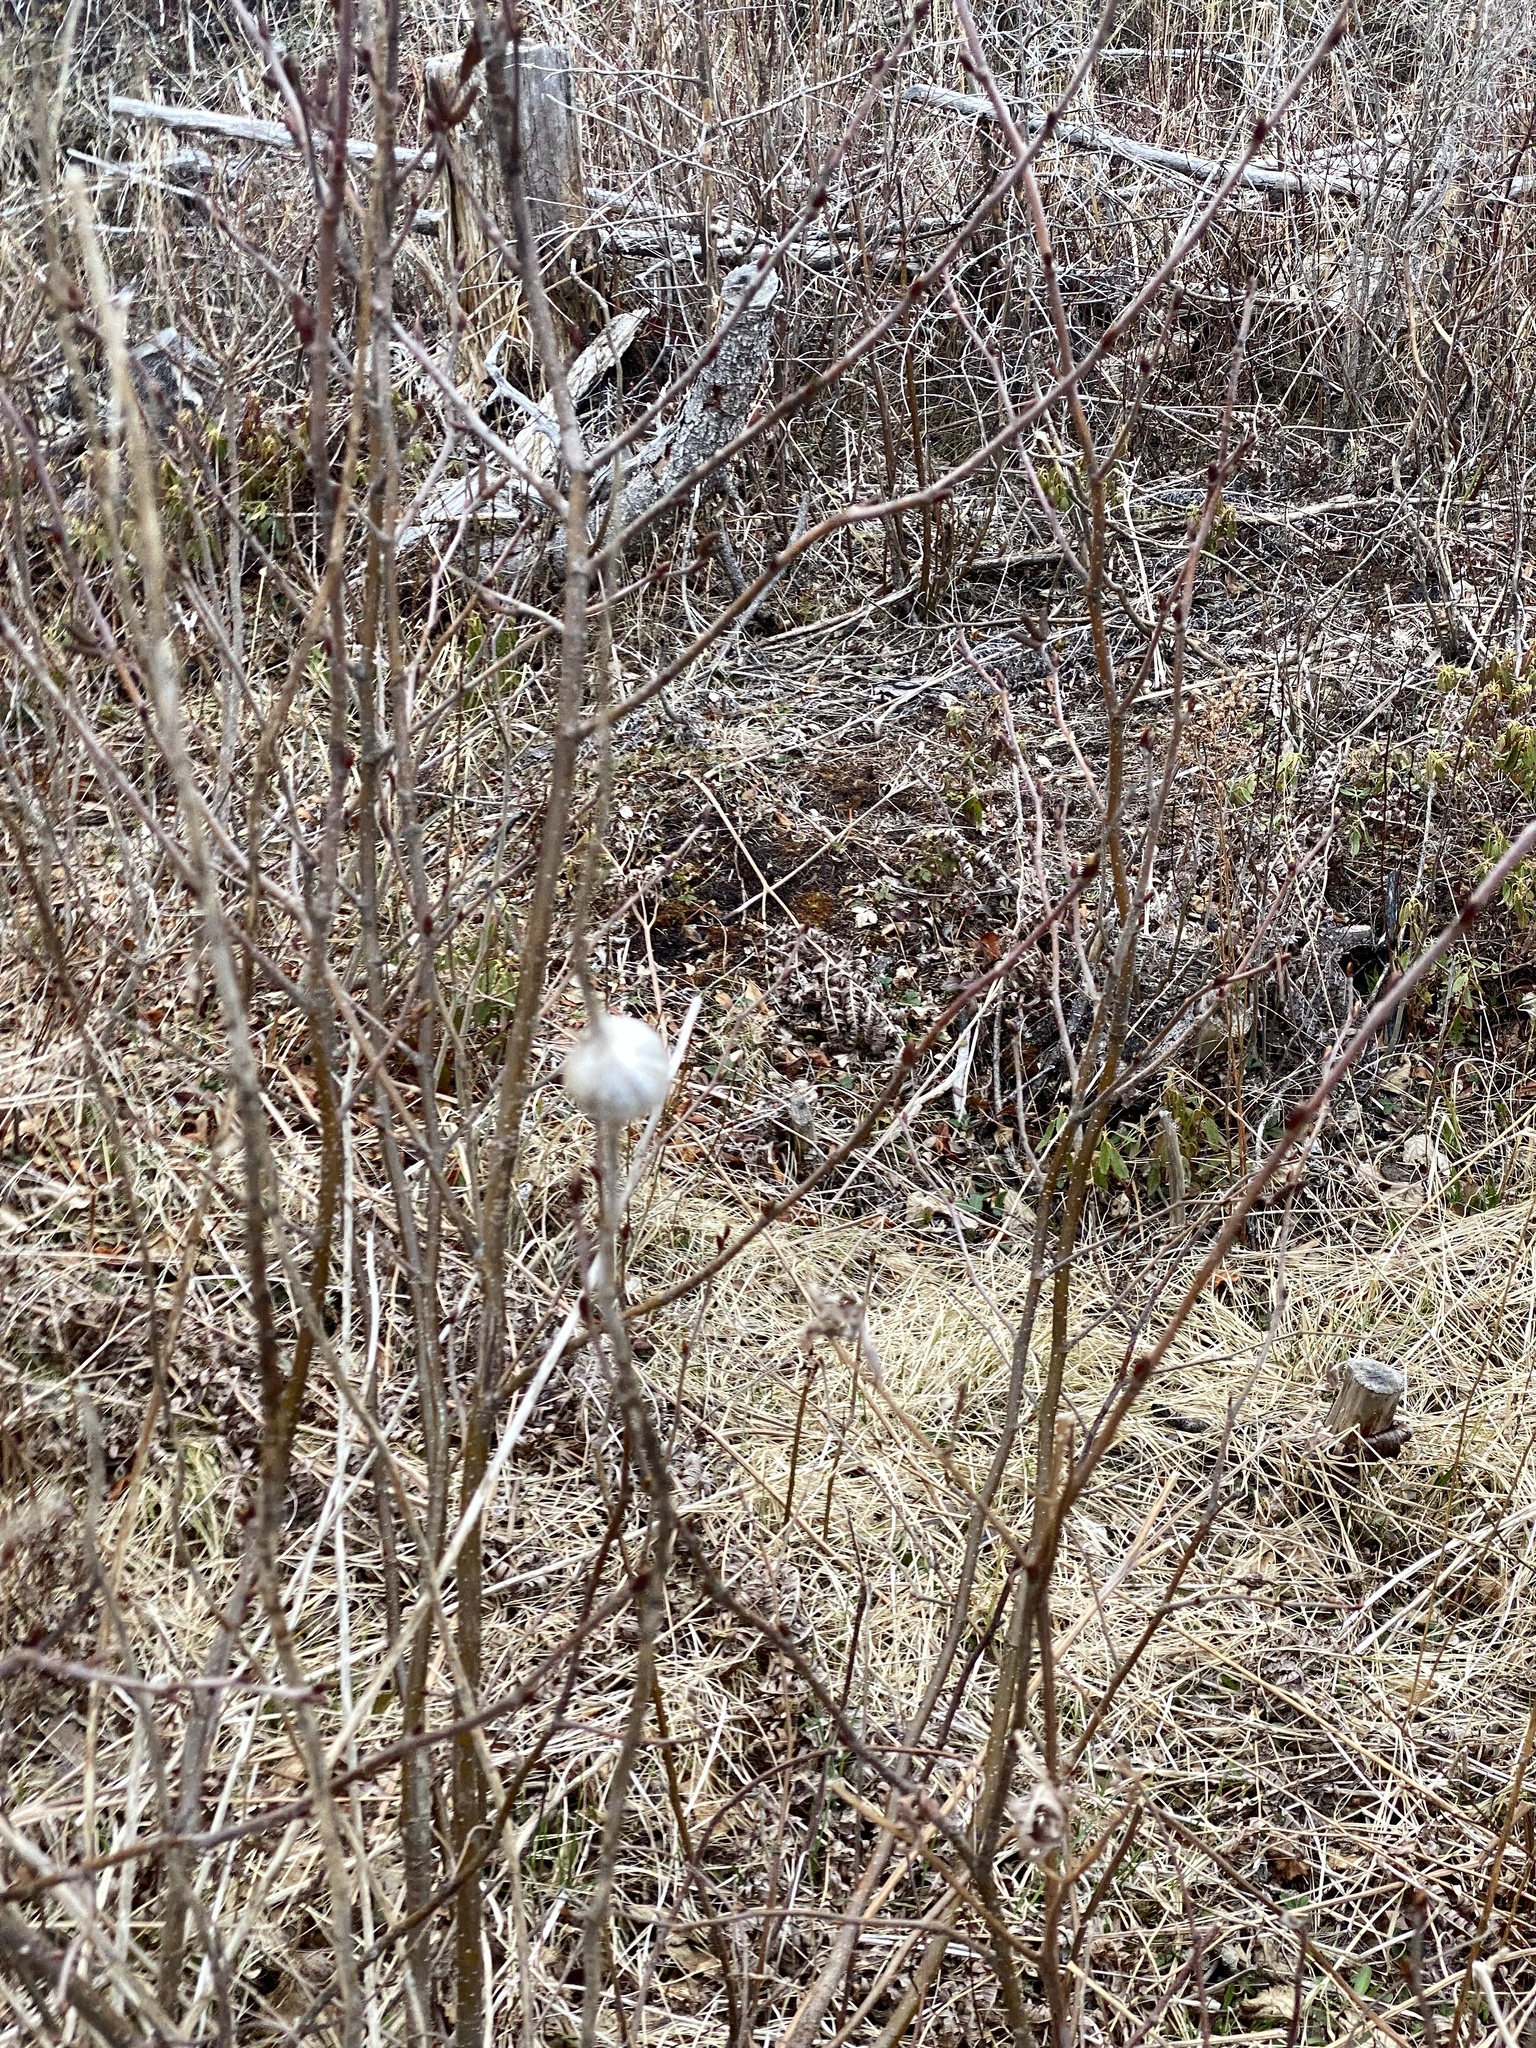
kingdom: Animalia
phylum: Arthropoda
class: Insecta
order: Diptera
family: Tephritidae
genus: Eurosta
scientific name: Eurosta solidaginis
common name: Goldenrod gall fly
